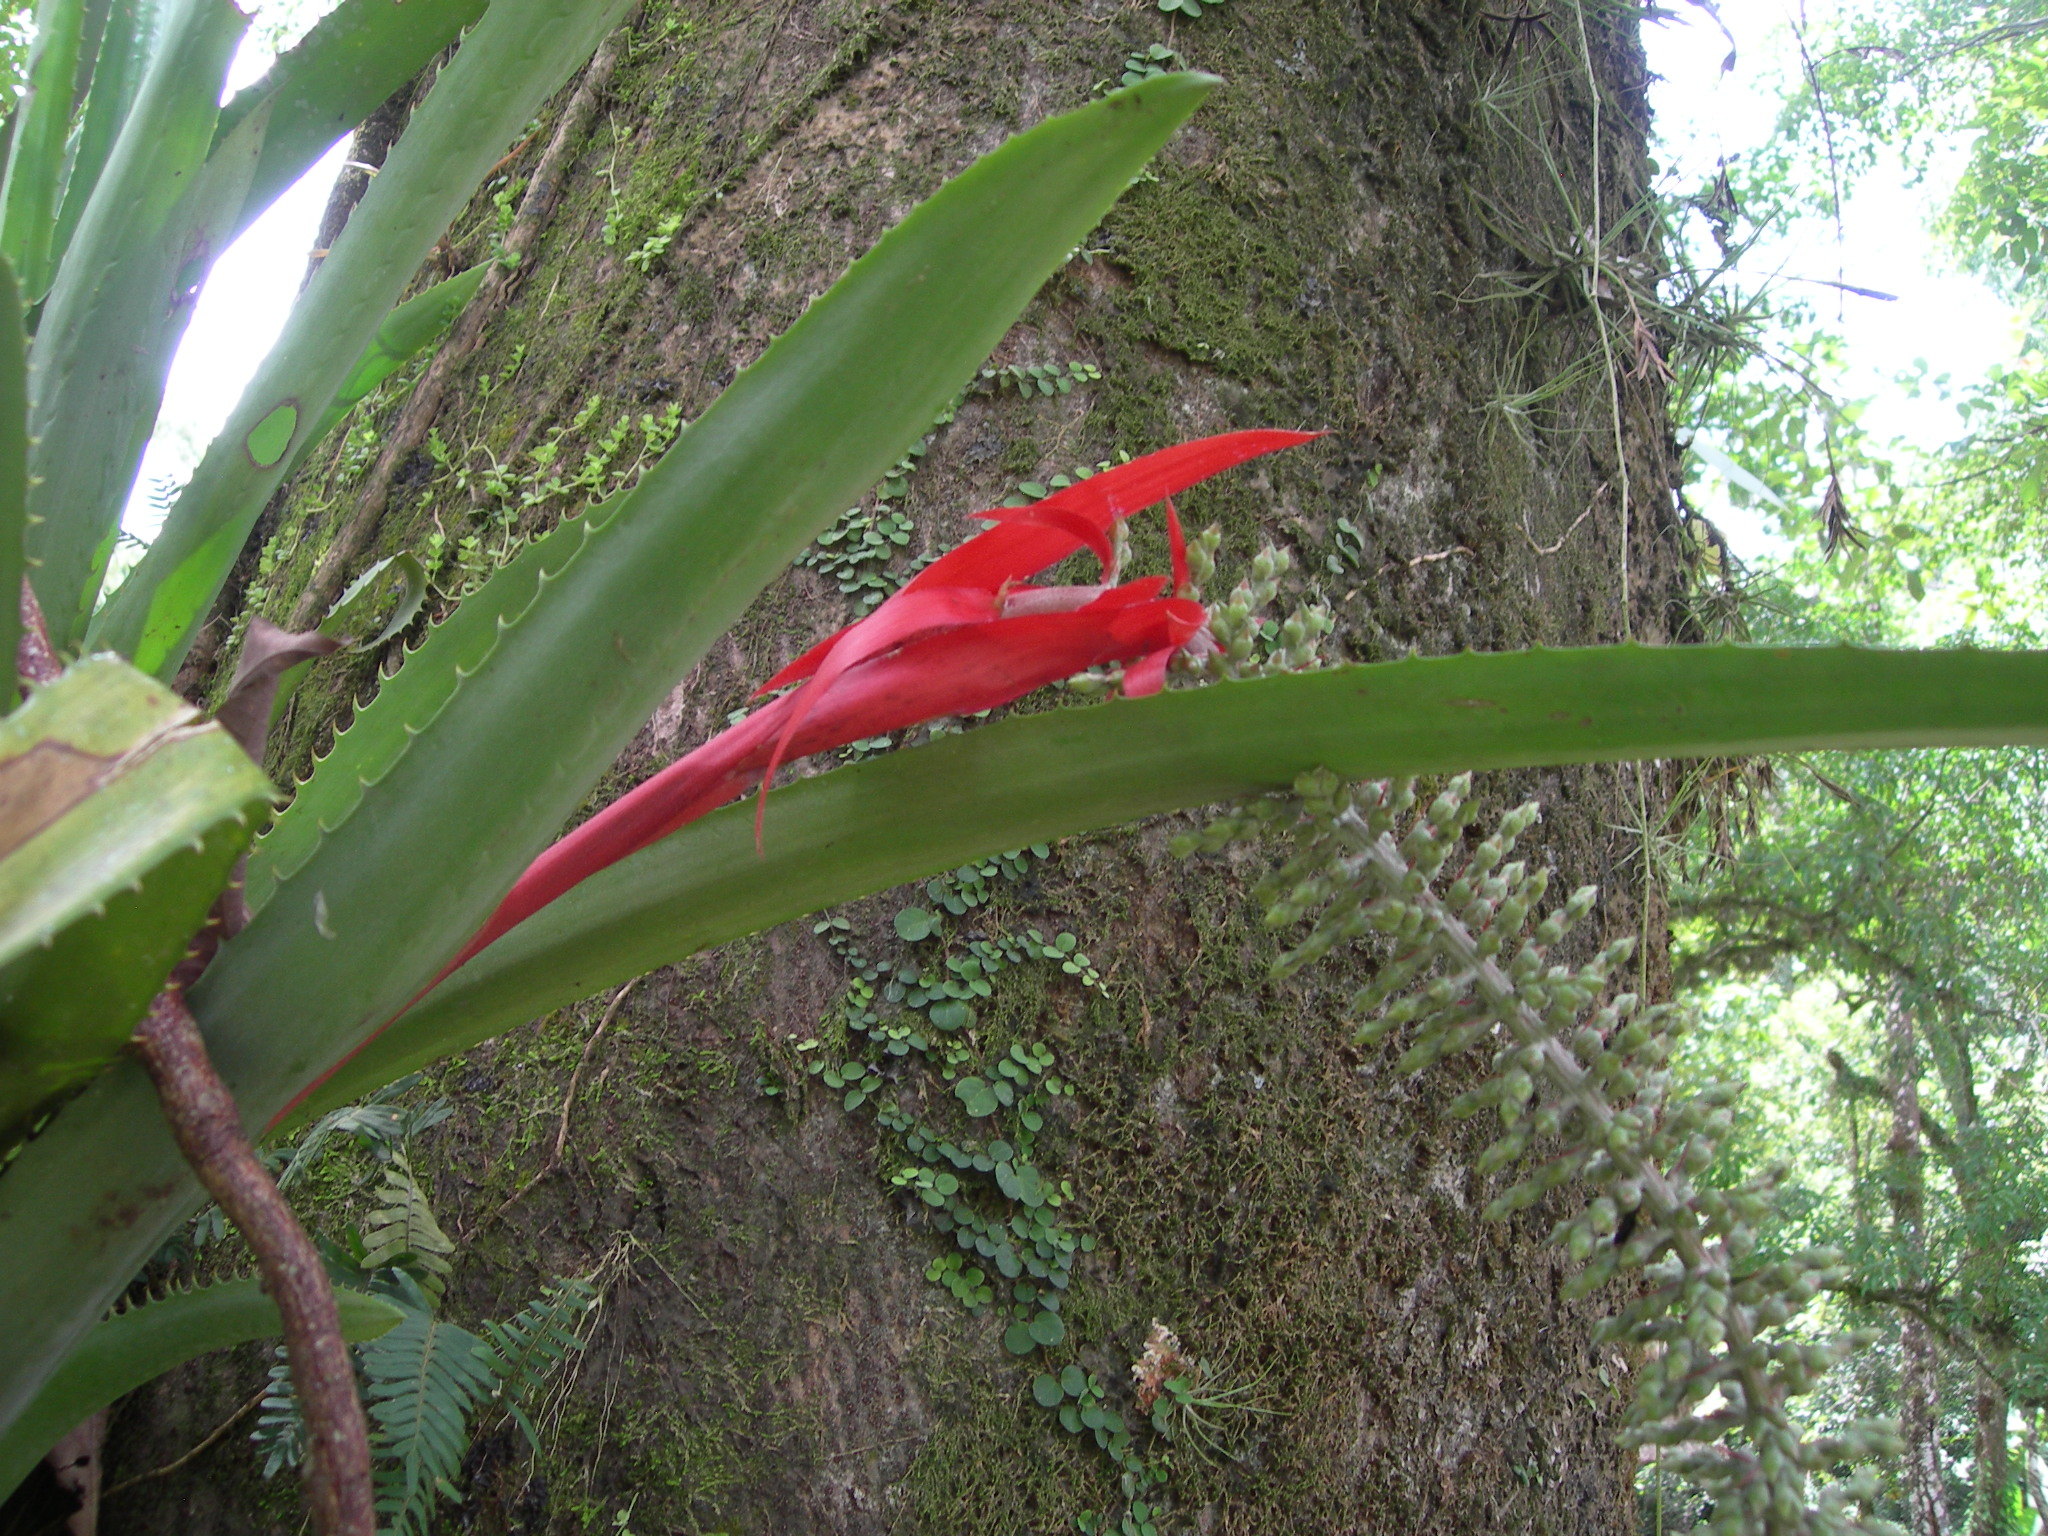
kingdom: Plantae
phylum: Tracheophyta
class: Liliopsida
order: Poales
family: Bromeliaceae
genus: Aechmea
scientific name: Aechmea bracteata
